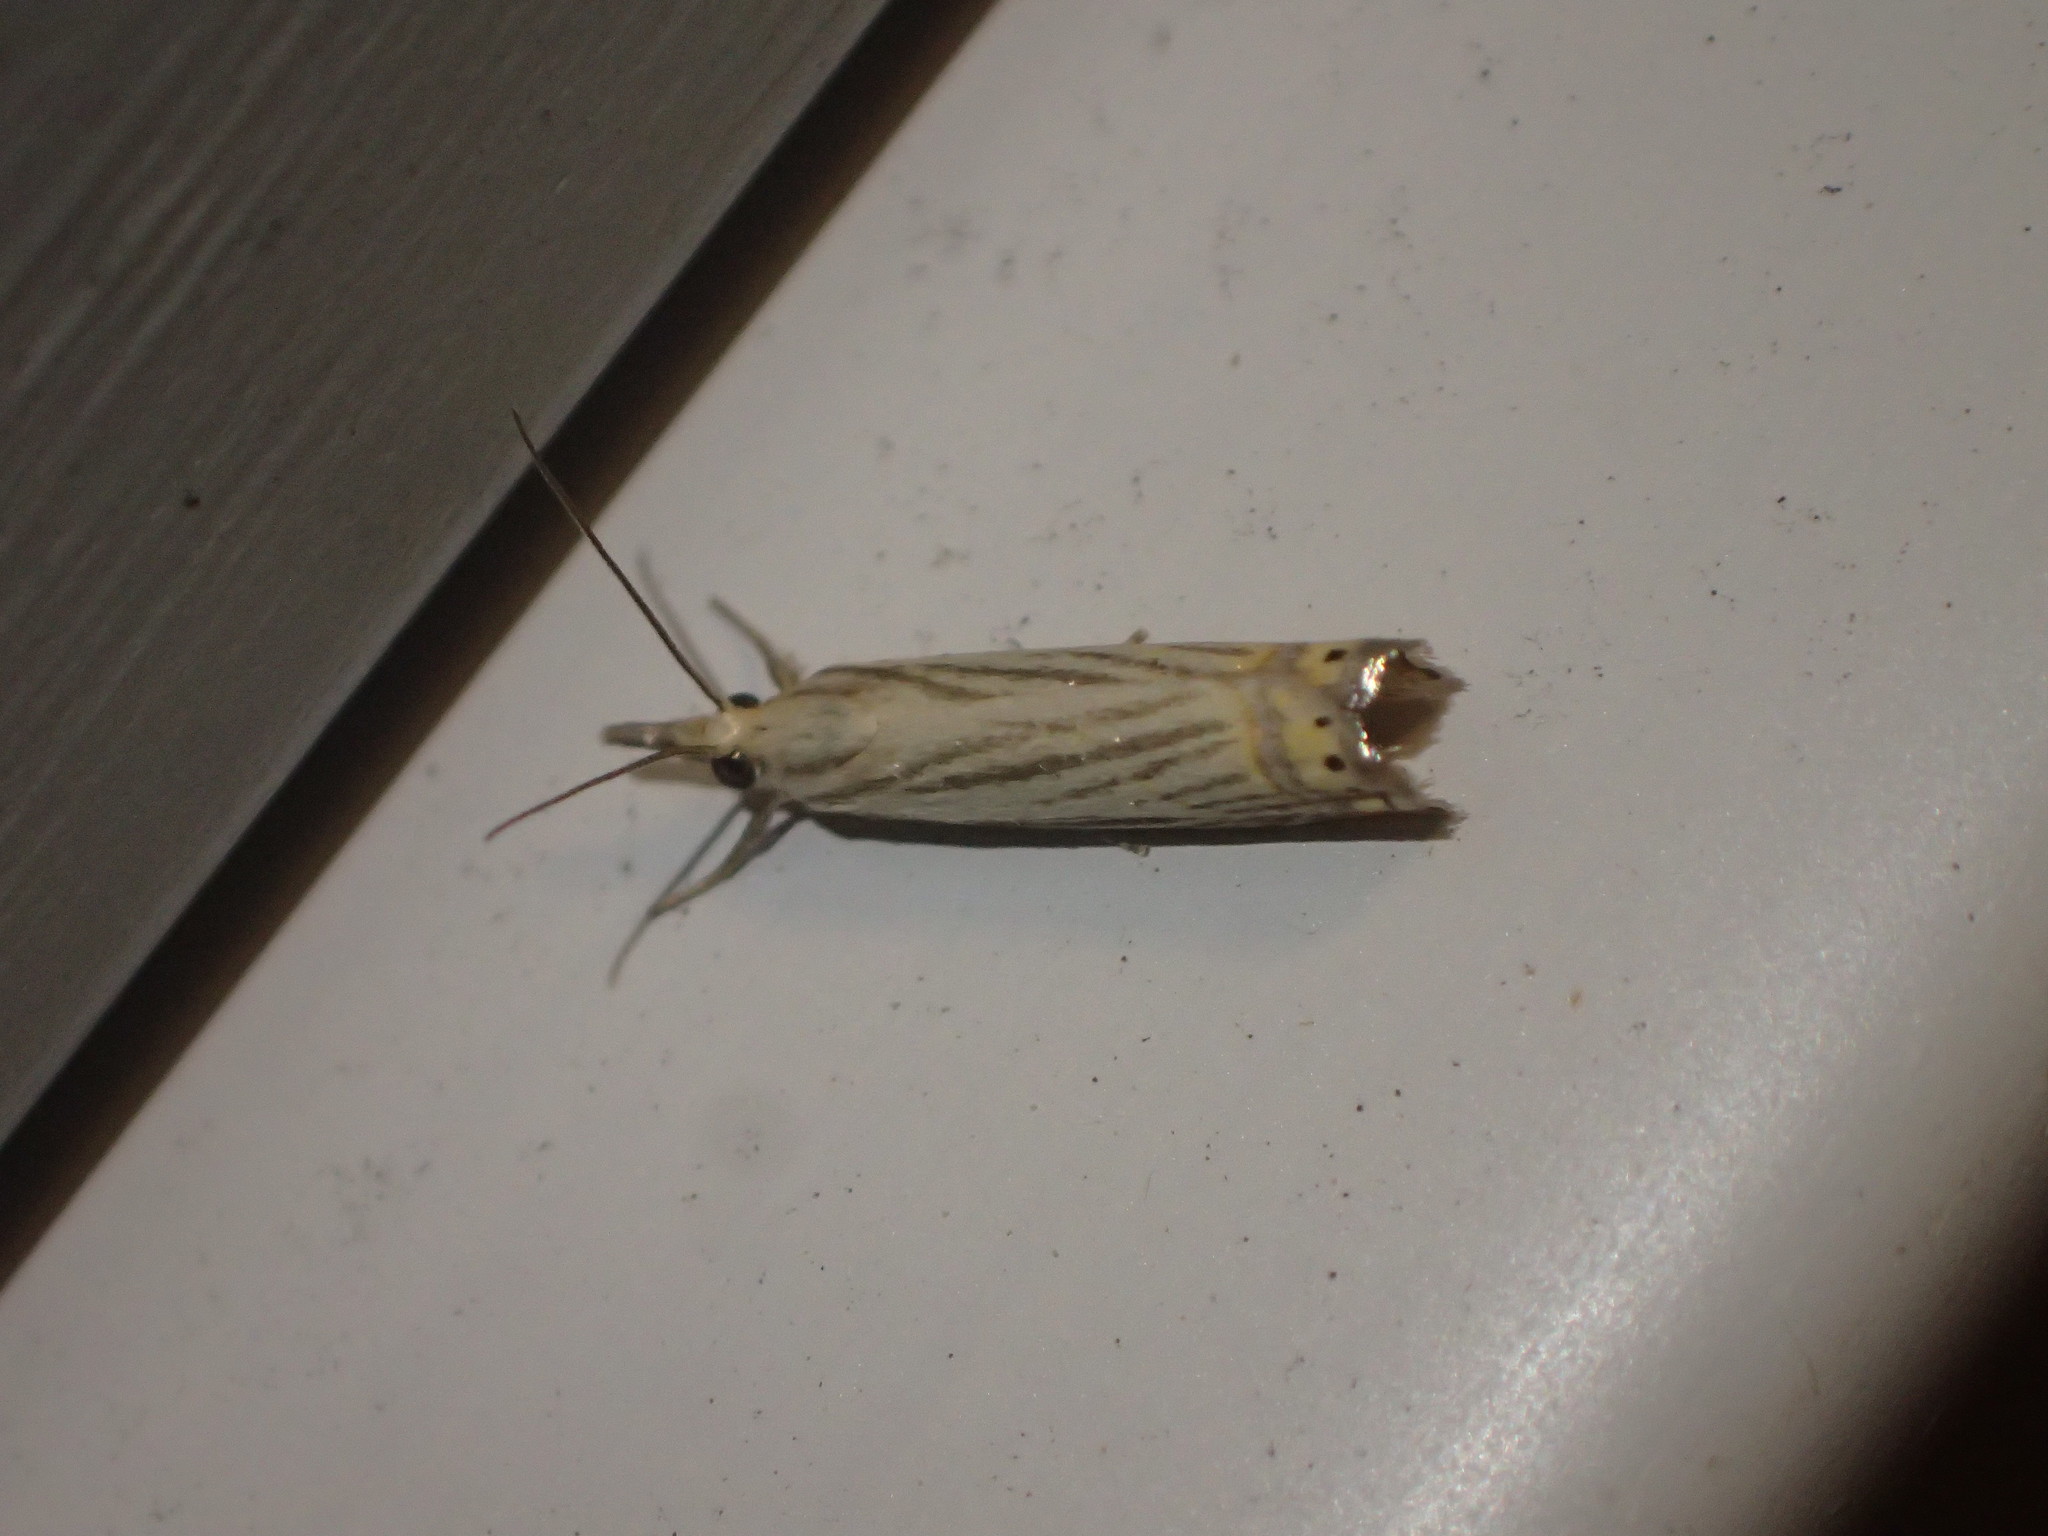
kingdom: Animalia
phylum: Arthropoda
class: Insecta
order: Lepidoptera
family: Crambidae
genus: Chrysoteuchia
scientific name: Chrysoteuchia topiarius
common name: Topiary grass-veneer
